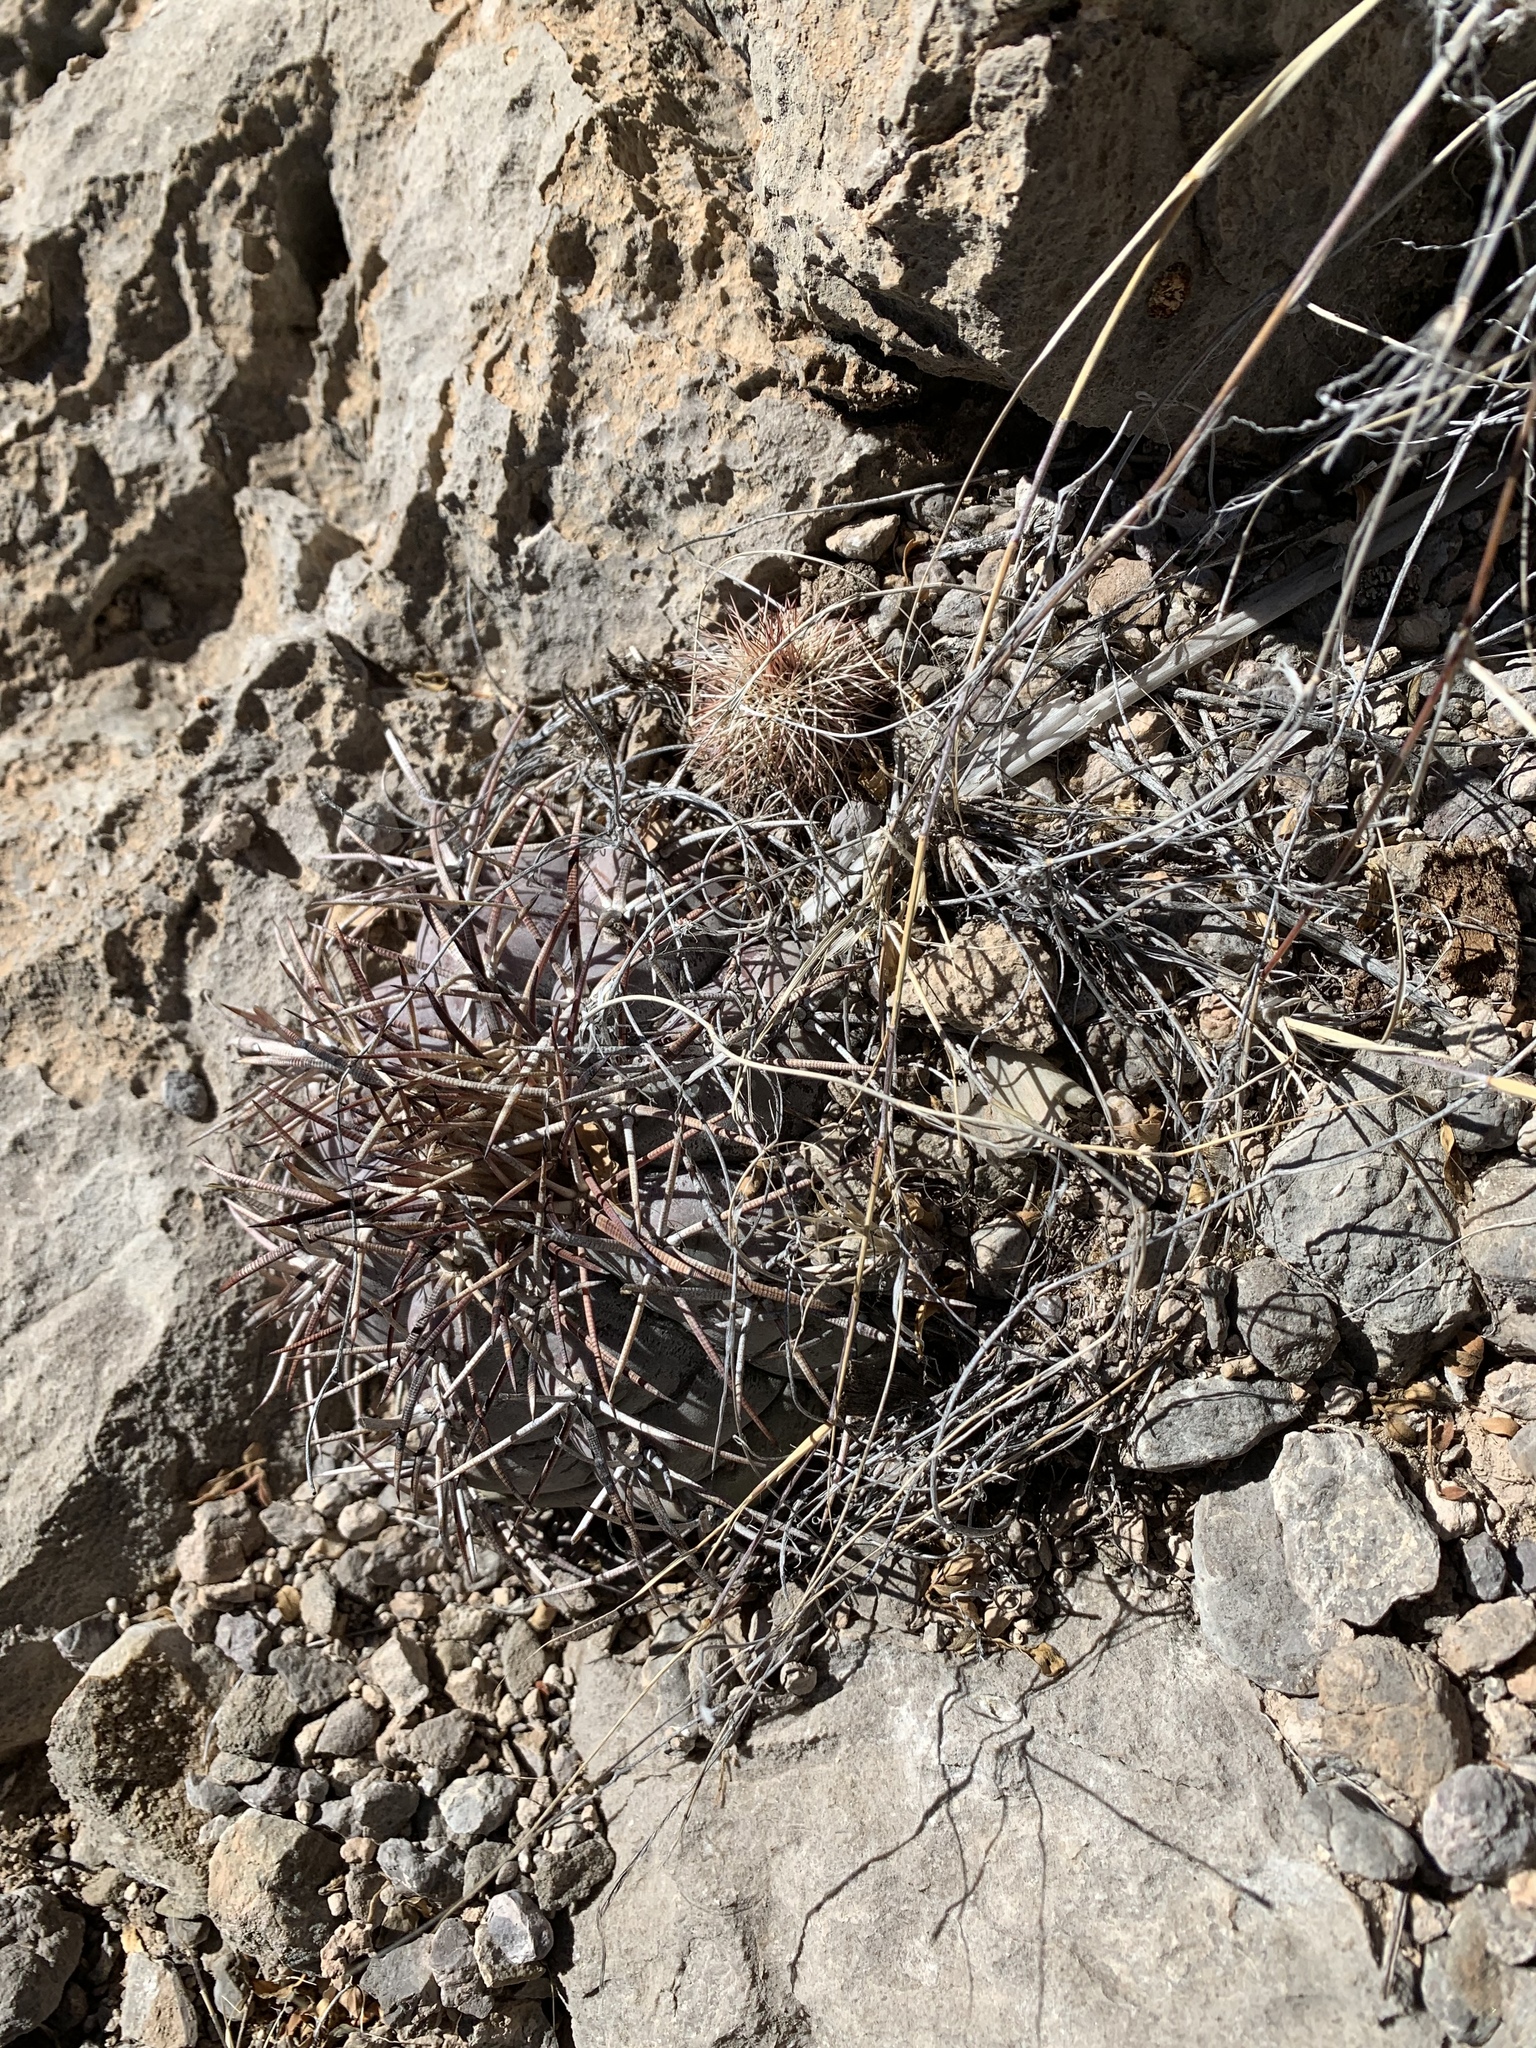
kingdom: Plantae
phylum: Tracheophyta
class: Magnoliopsida
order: Caryophyllales
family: Cactaceae
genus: Echinocereus
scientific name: Echinocereus dasyacanthus
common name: Spiny hedgehog cactus
